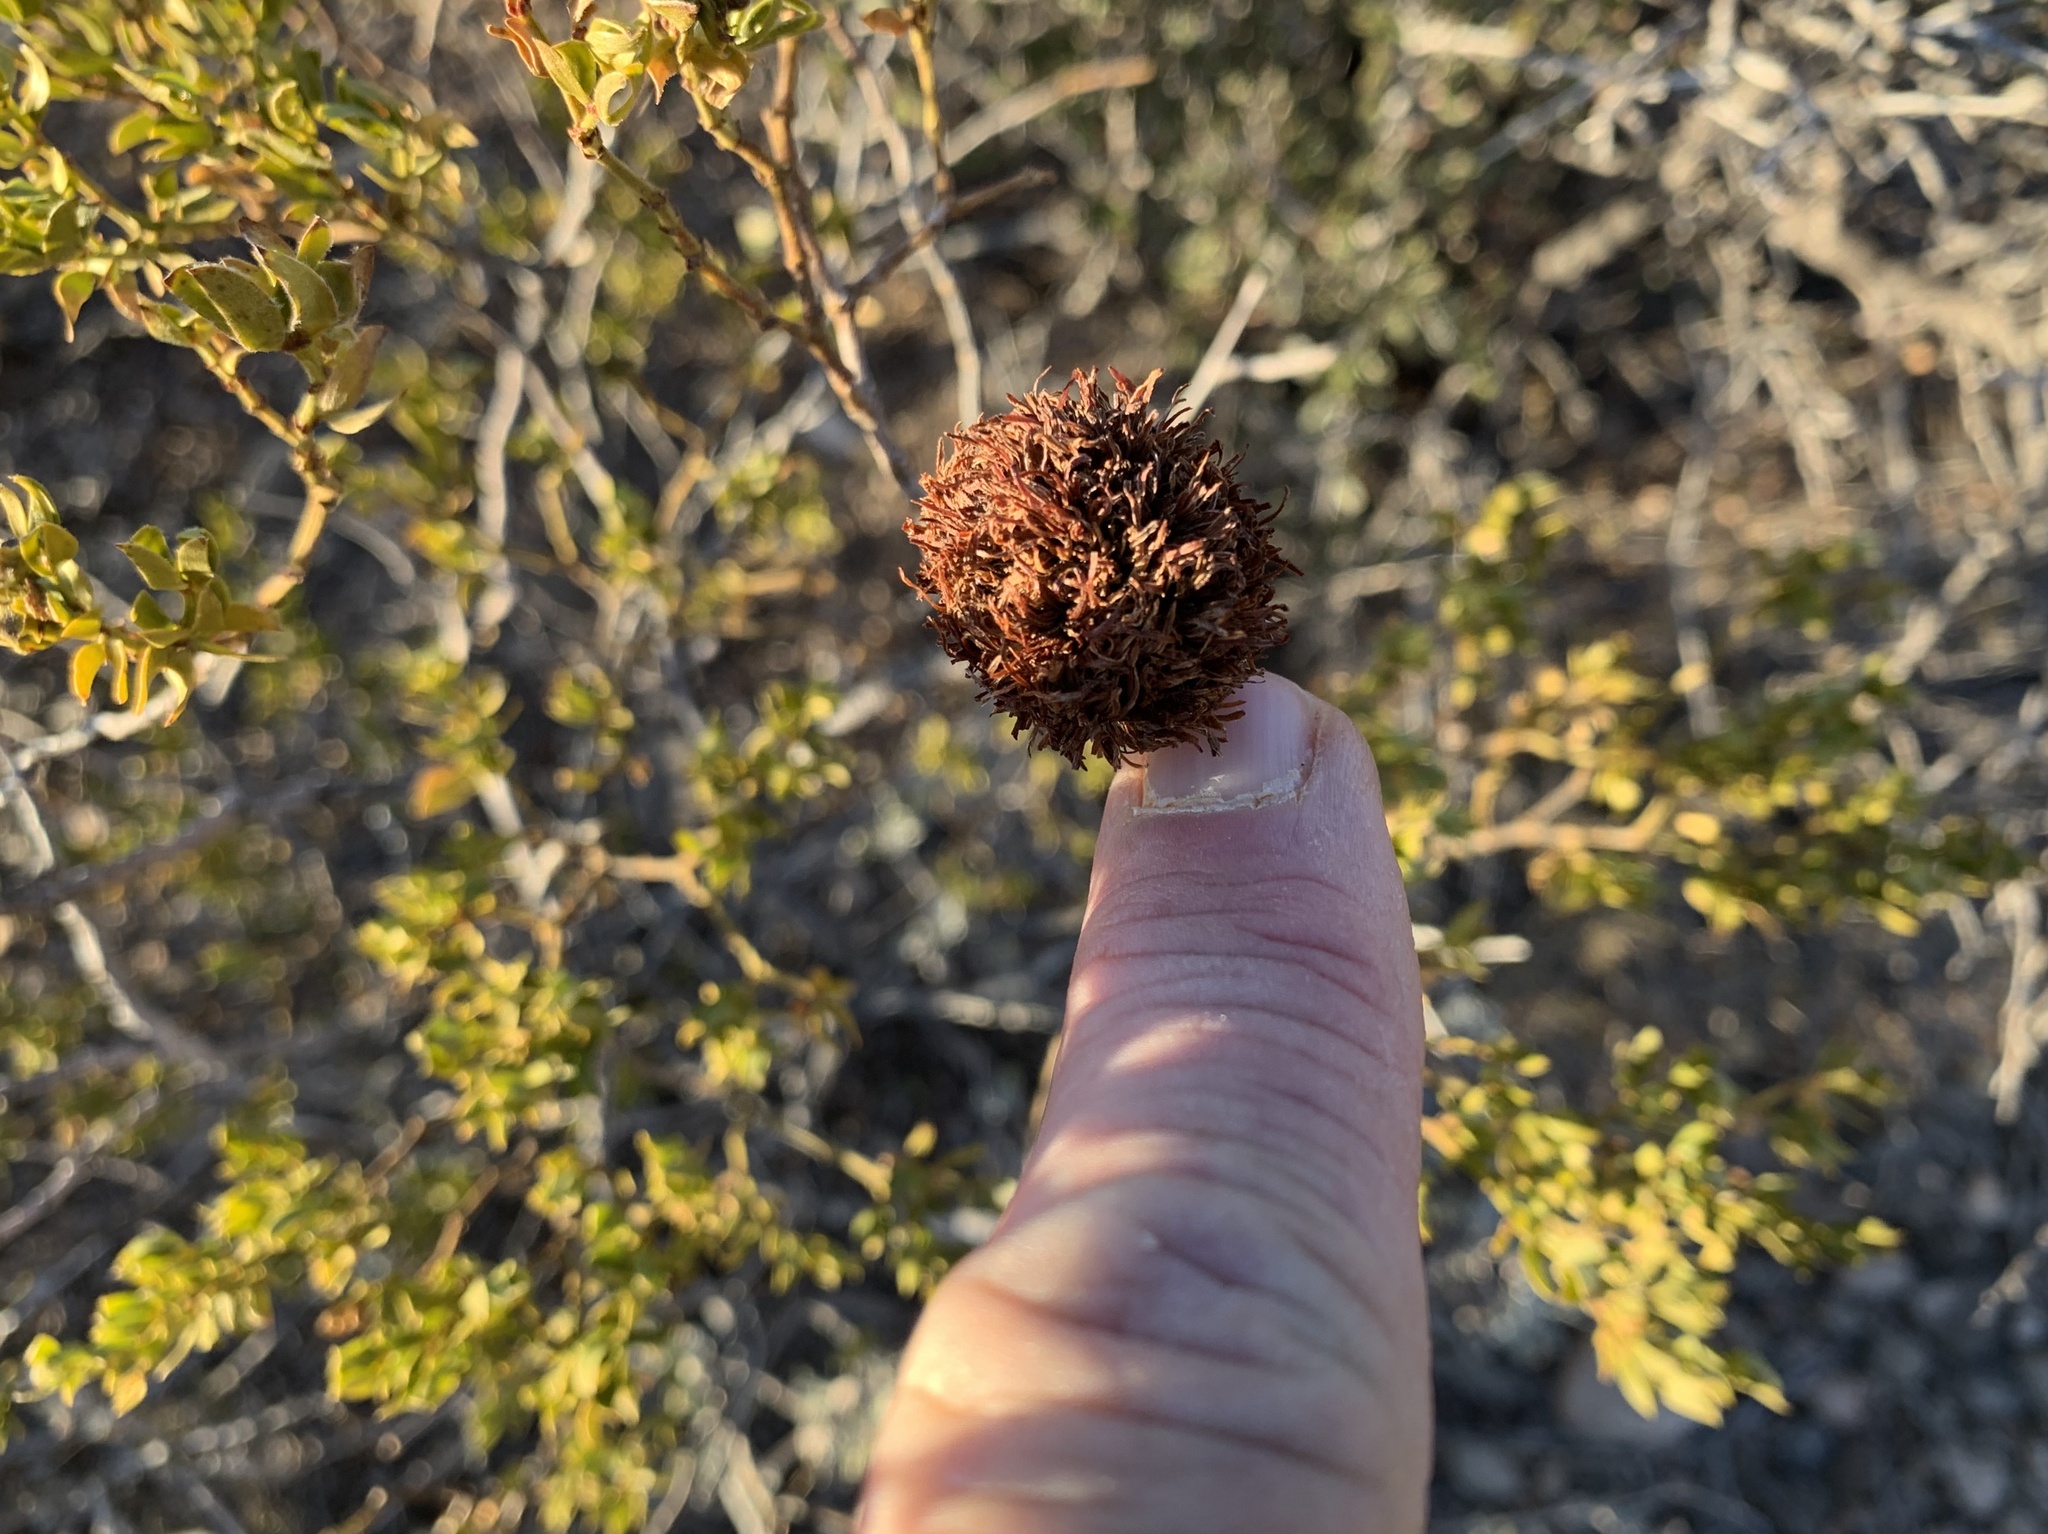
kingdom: Animalia
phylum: Arthropoda
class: Insecta
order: Diptera
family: Cecidomyiidae
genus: Asphondylia
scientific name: Asphondylia auripila
